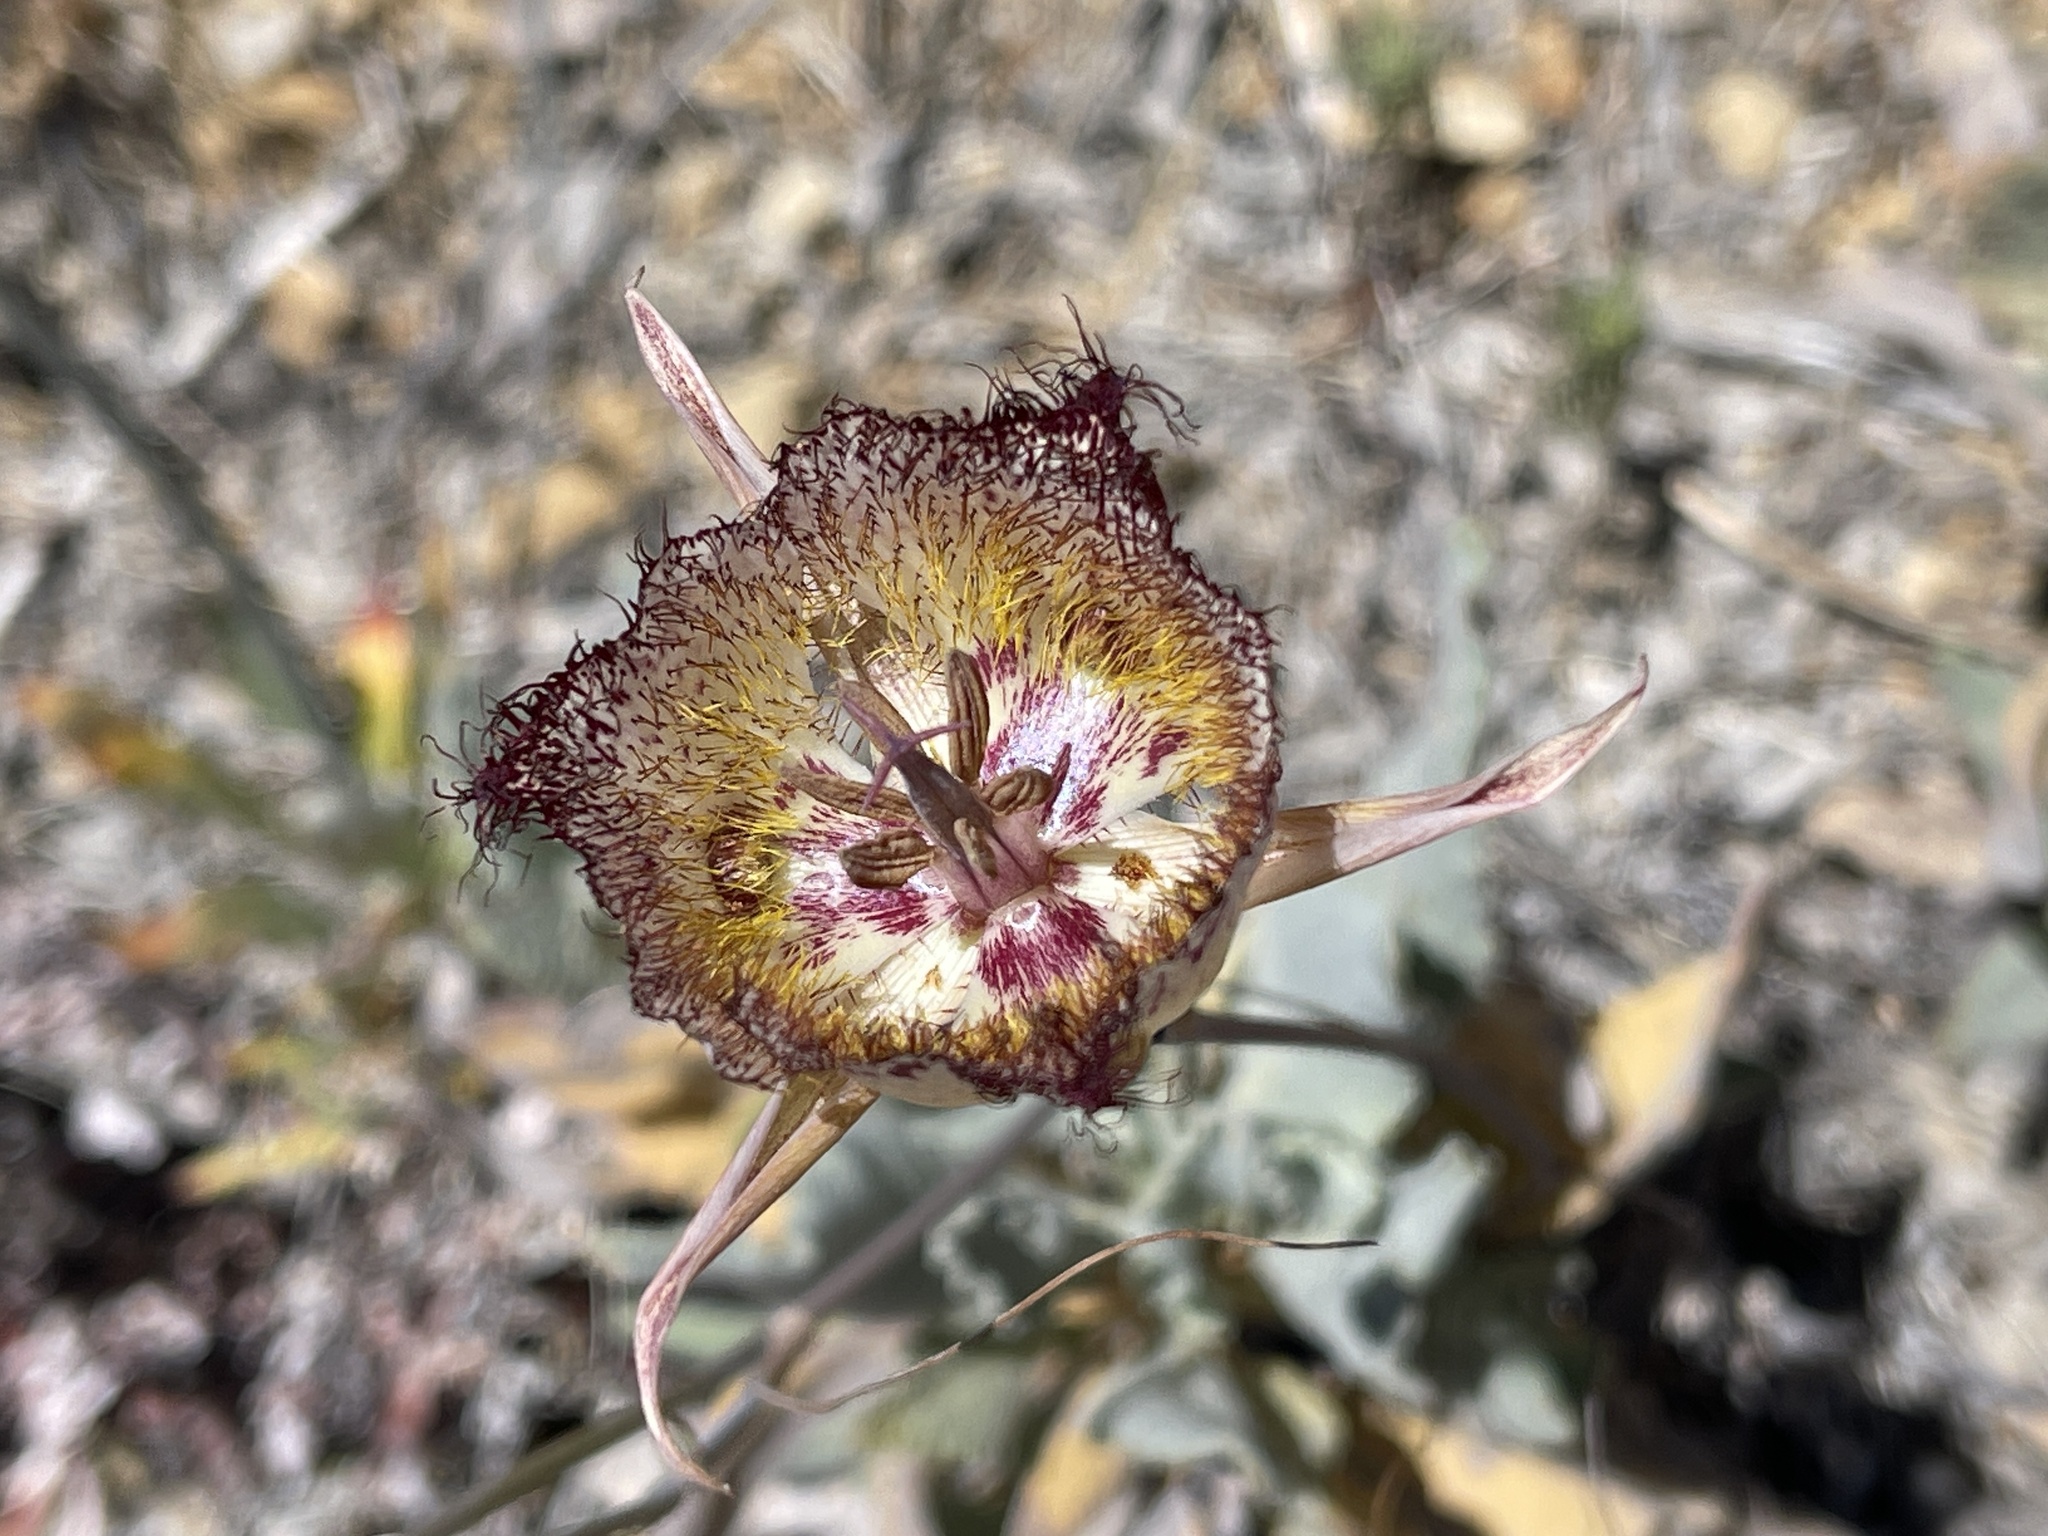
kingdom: Plantae
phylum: Tracheophyta
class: Liliopsida
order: Liliales
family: Liliaceae
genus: Calochortus
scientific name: Calochortus fimbriatus
